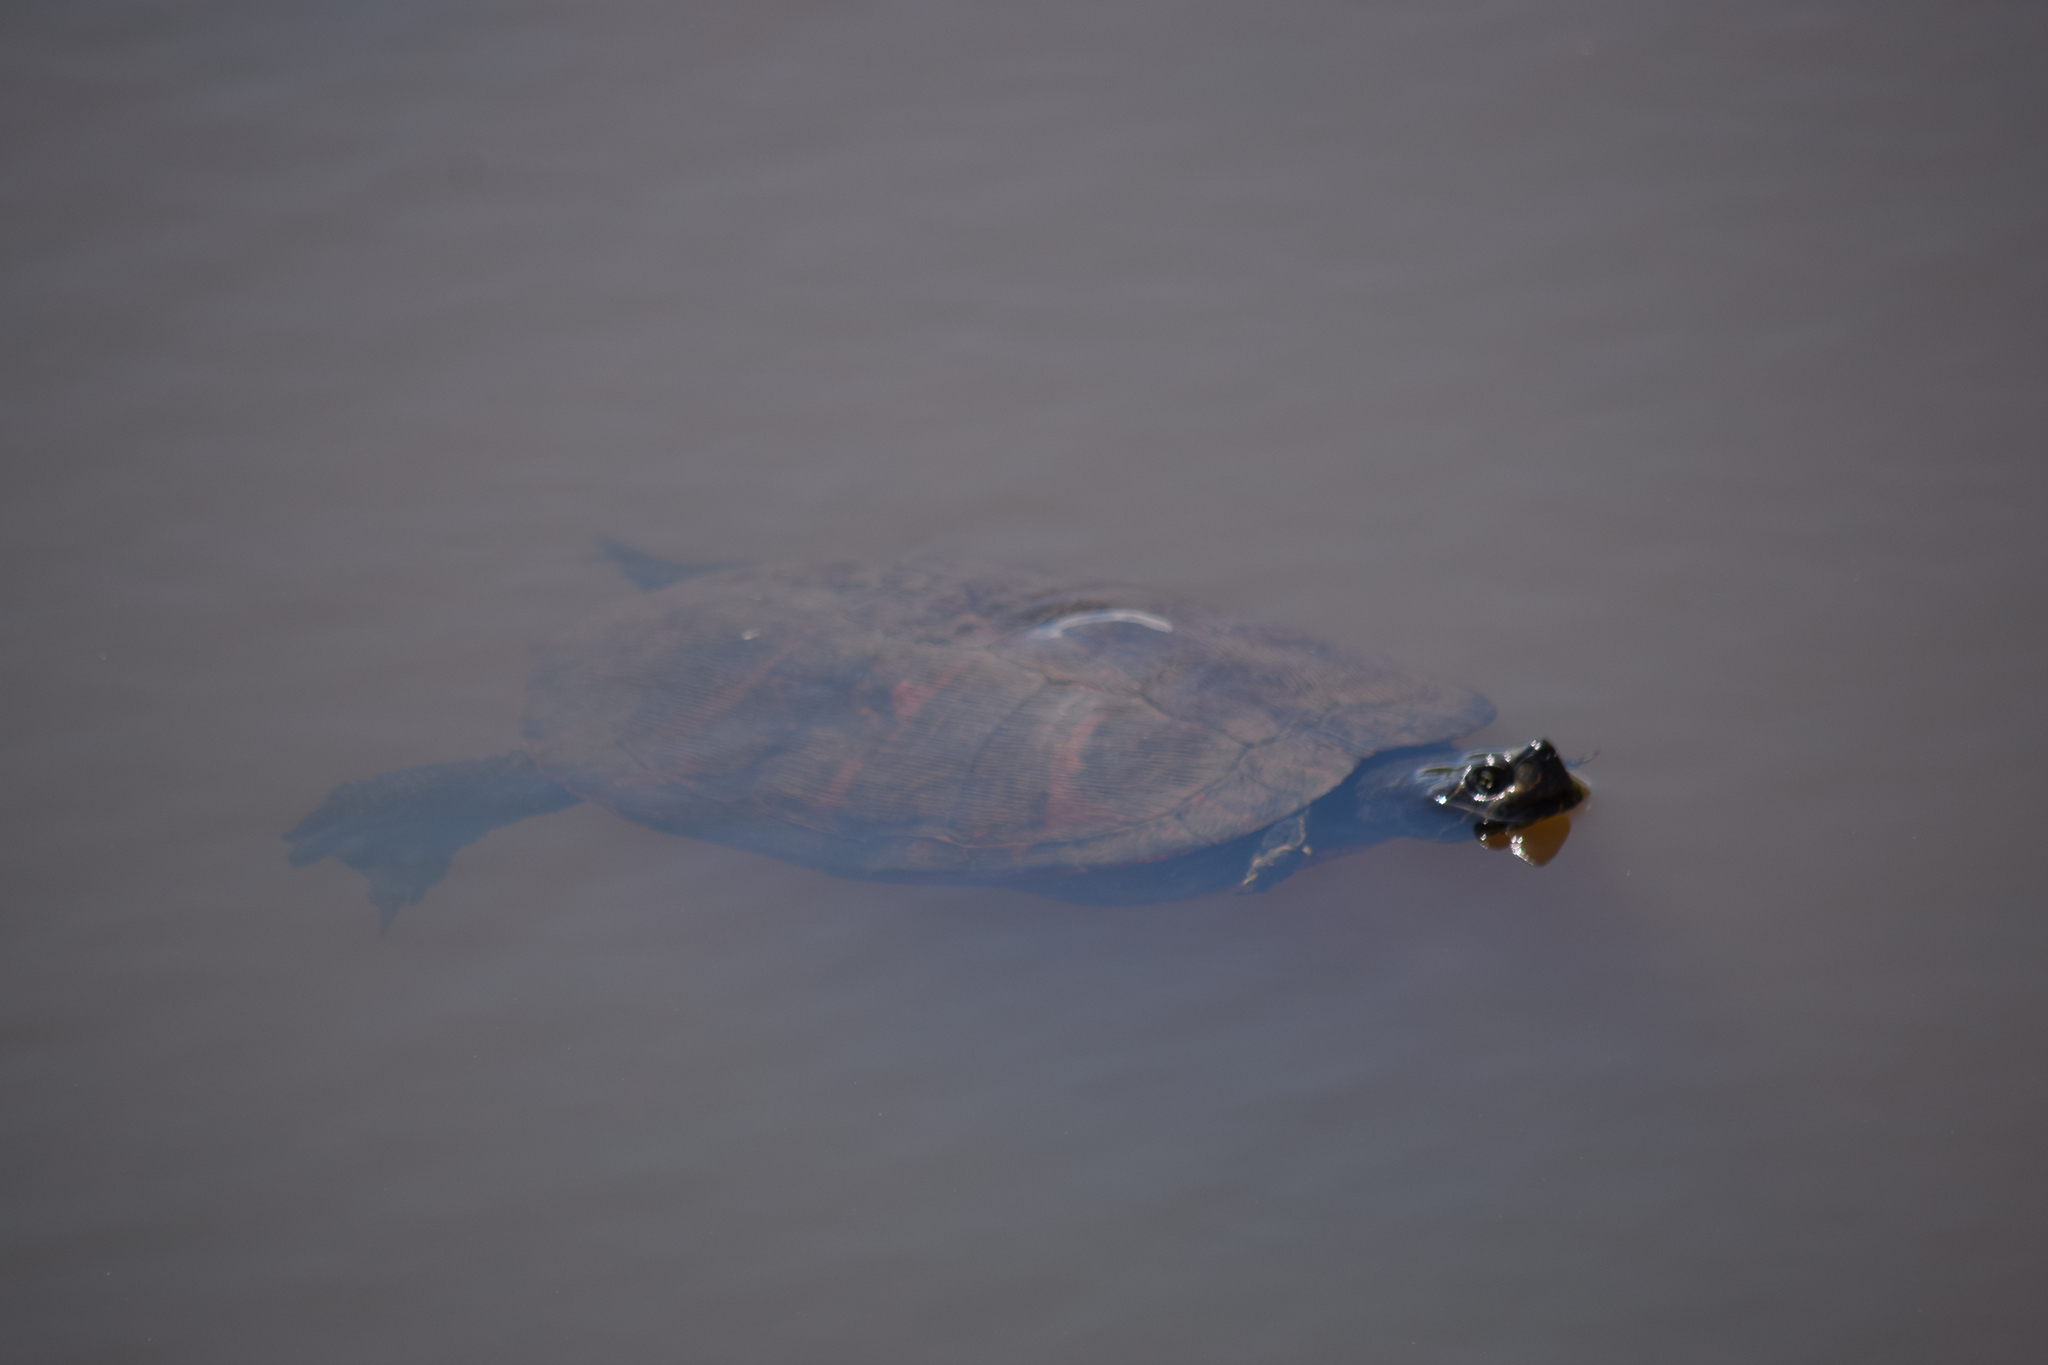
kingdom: Animalia
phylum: Chordata
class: Testudines
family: Emydidae
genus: Pseudemys
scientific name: Pseudemys rubriventris
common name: American red-bellied turtle
